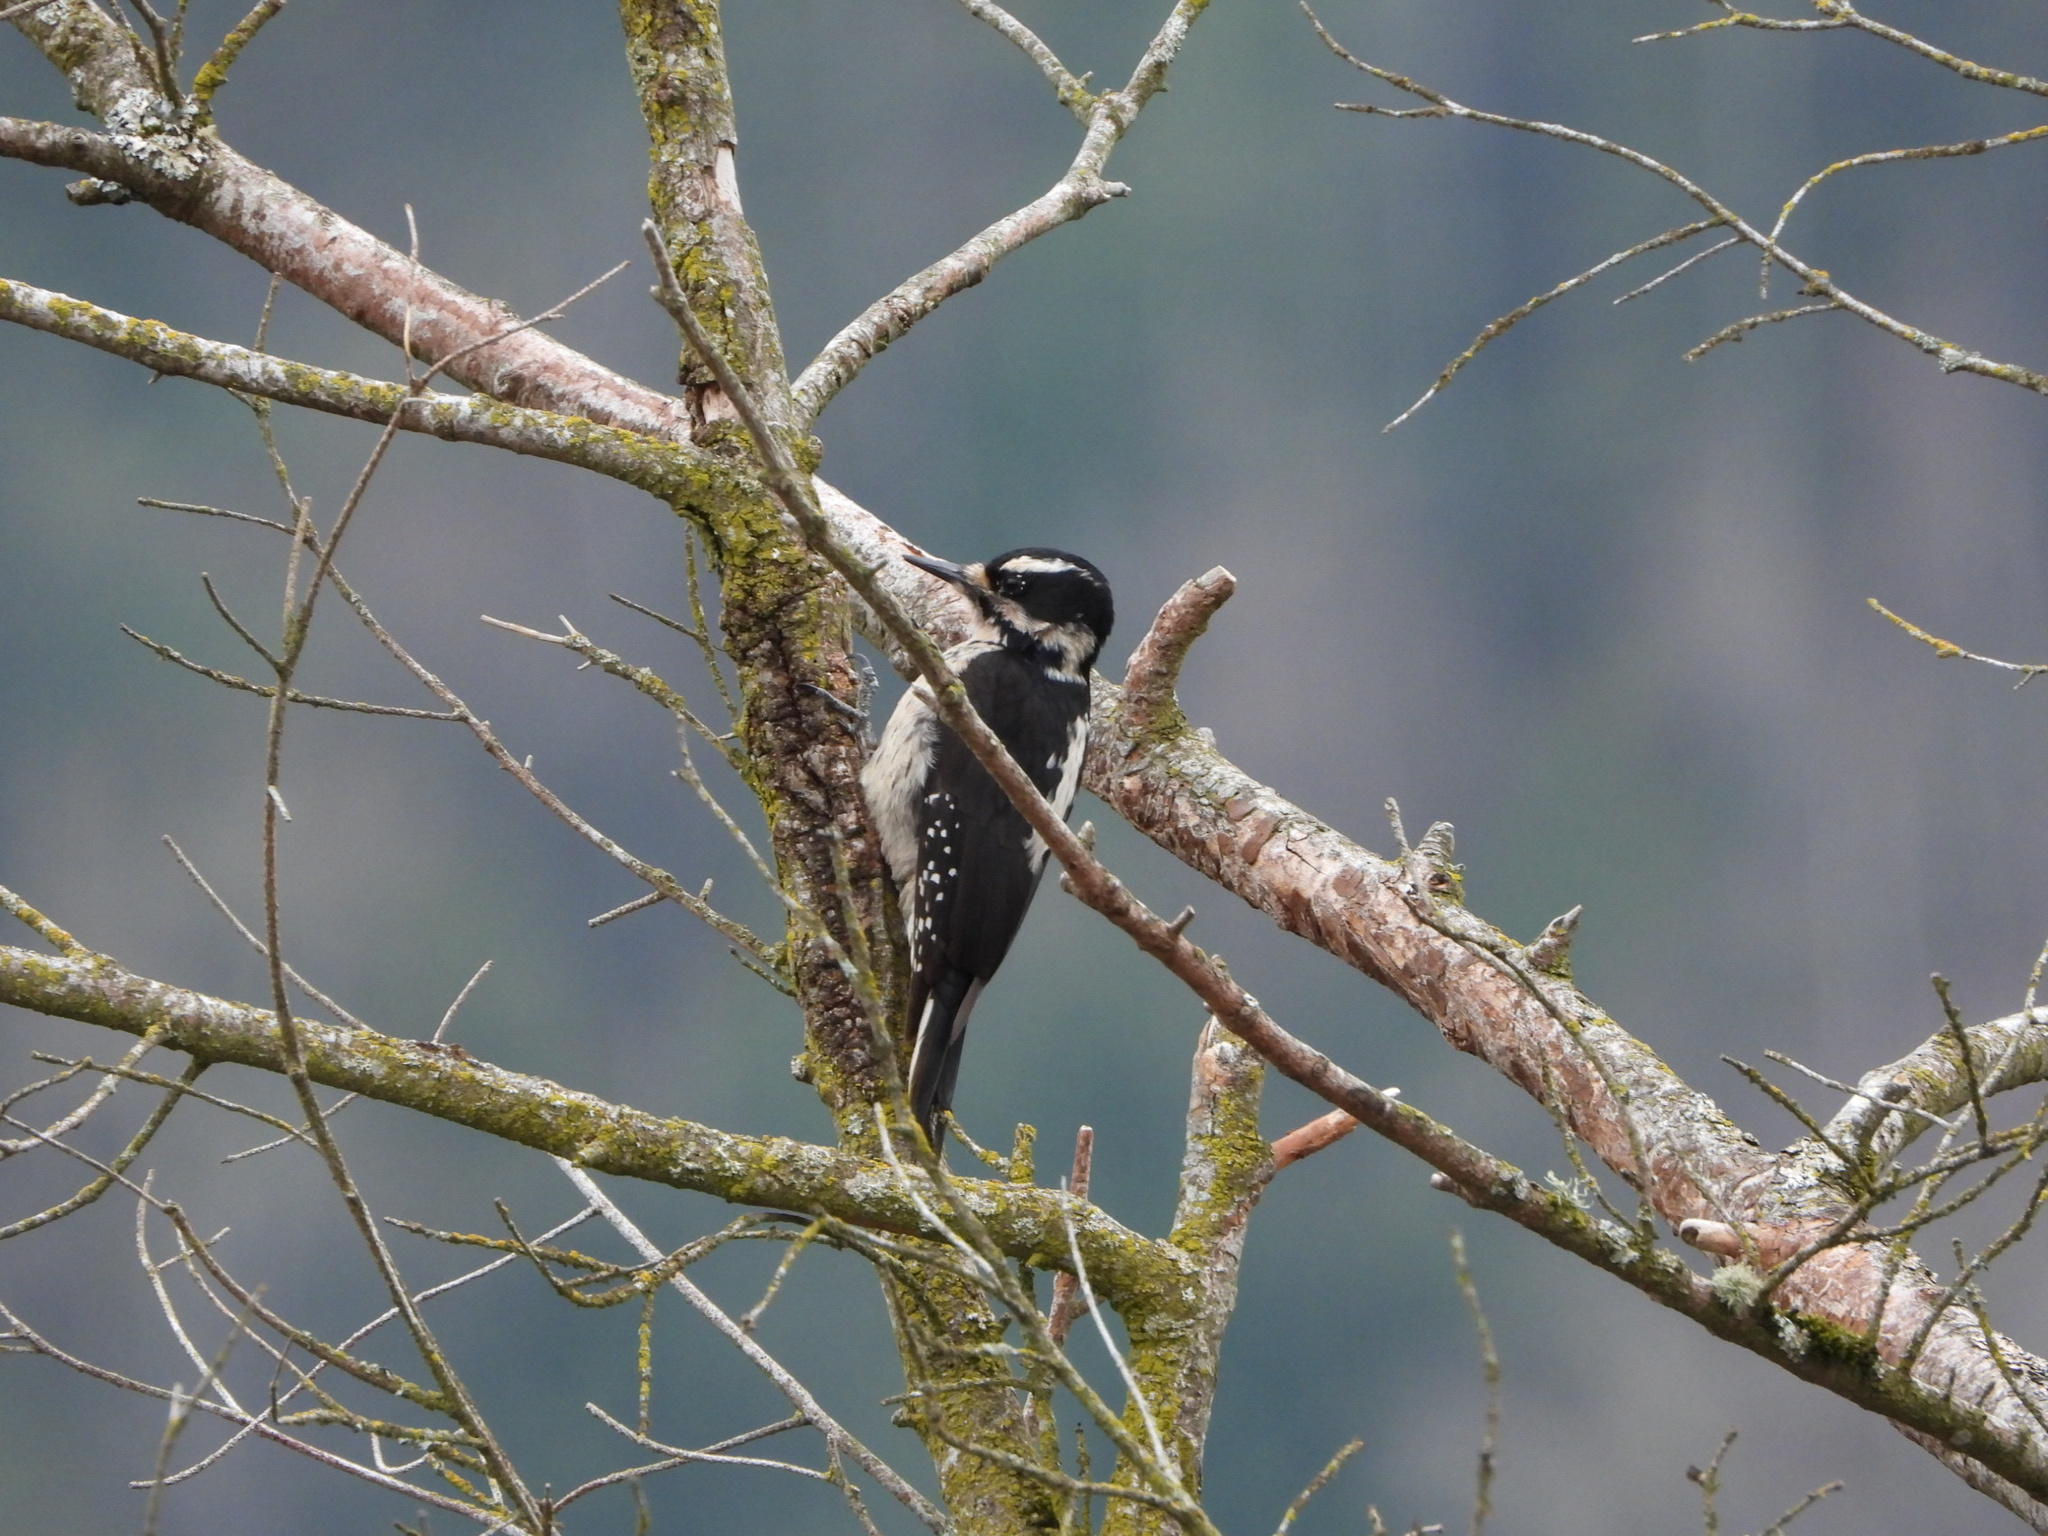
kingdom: Animalia
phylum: Chordata
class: Aves
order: Piciformes
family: Picidae
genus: Leuconotopicus
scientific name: Leuconotopicus villosus
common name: Hairy woodpecker
